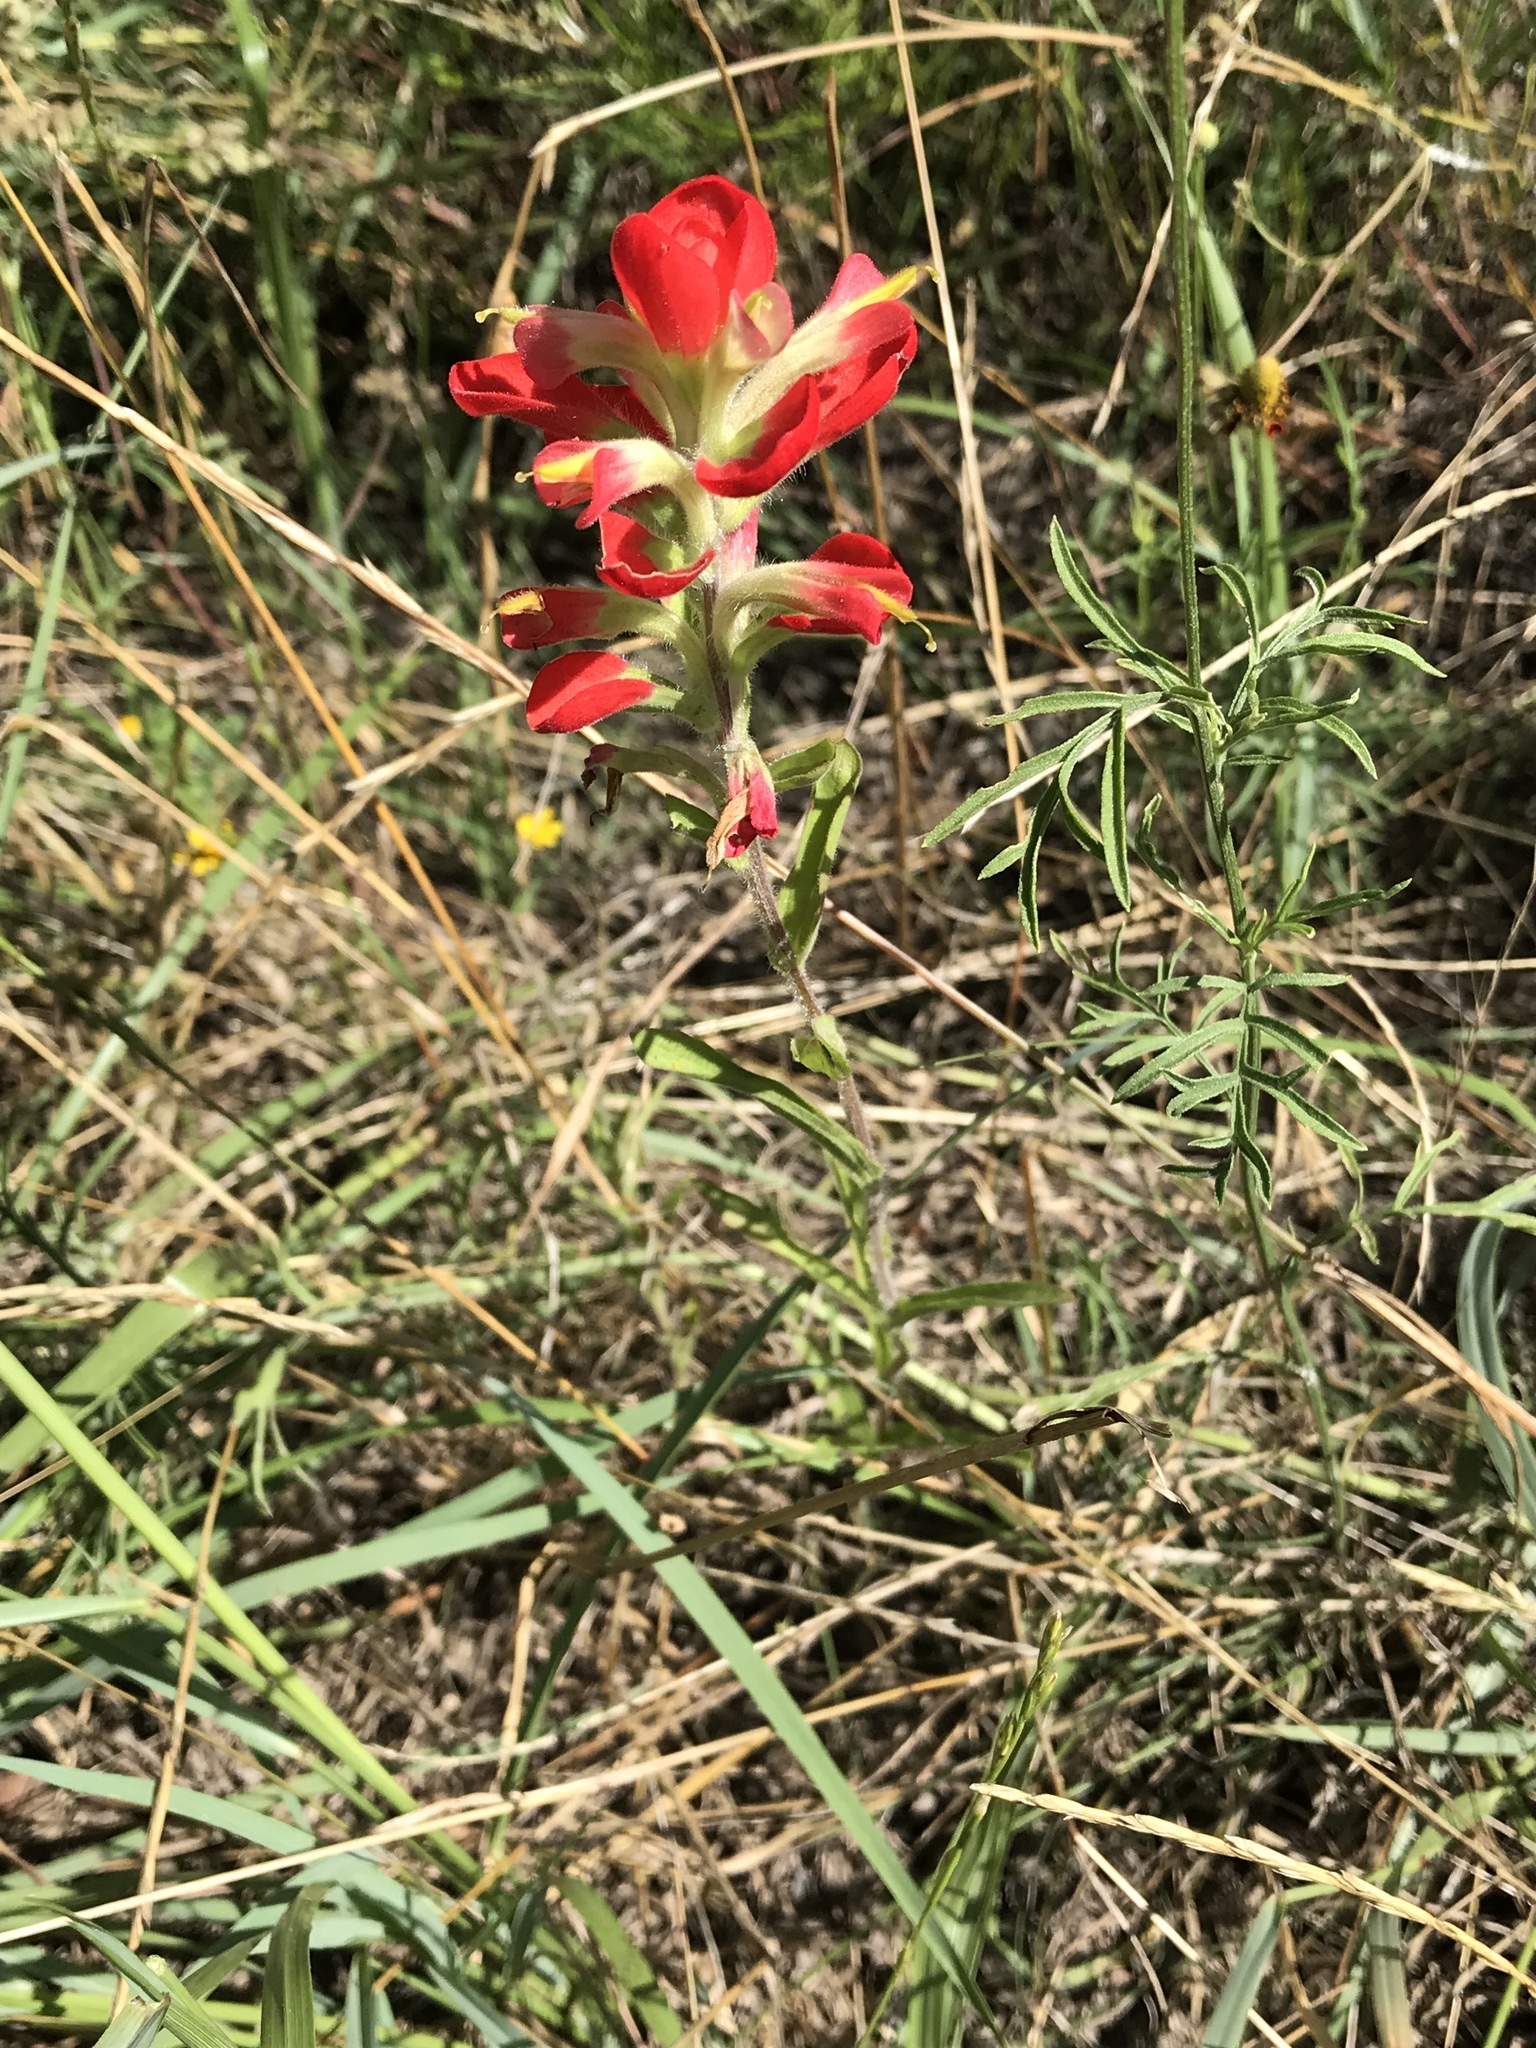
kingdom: Plantae
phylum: Tracheophyta
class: Magnoliopsida
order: Lamiales
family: Orobanchaceae
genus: Castilleja
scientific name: Castilleja indivisa
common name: Texas paintbrush
